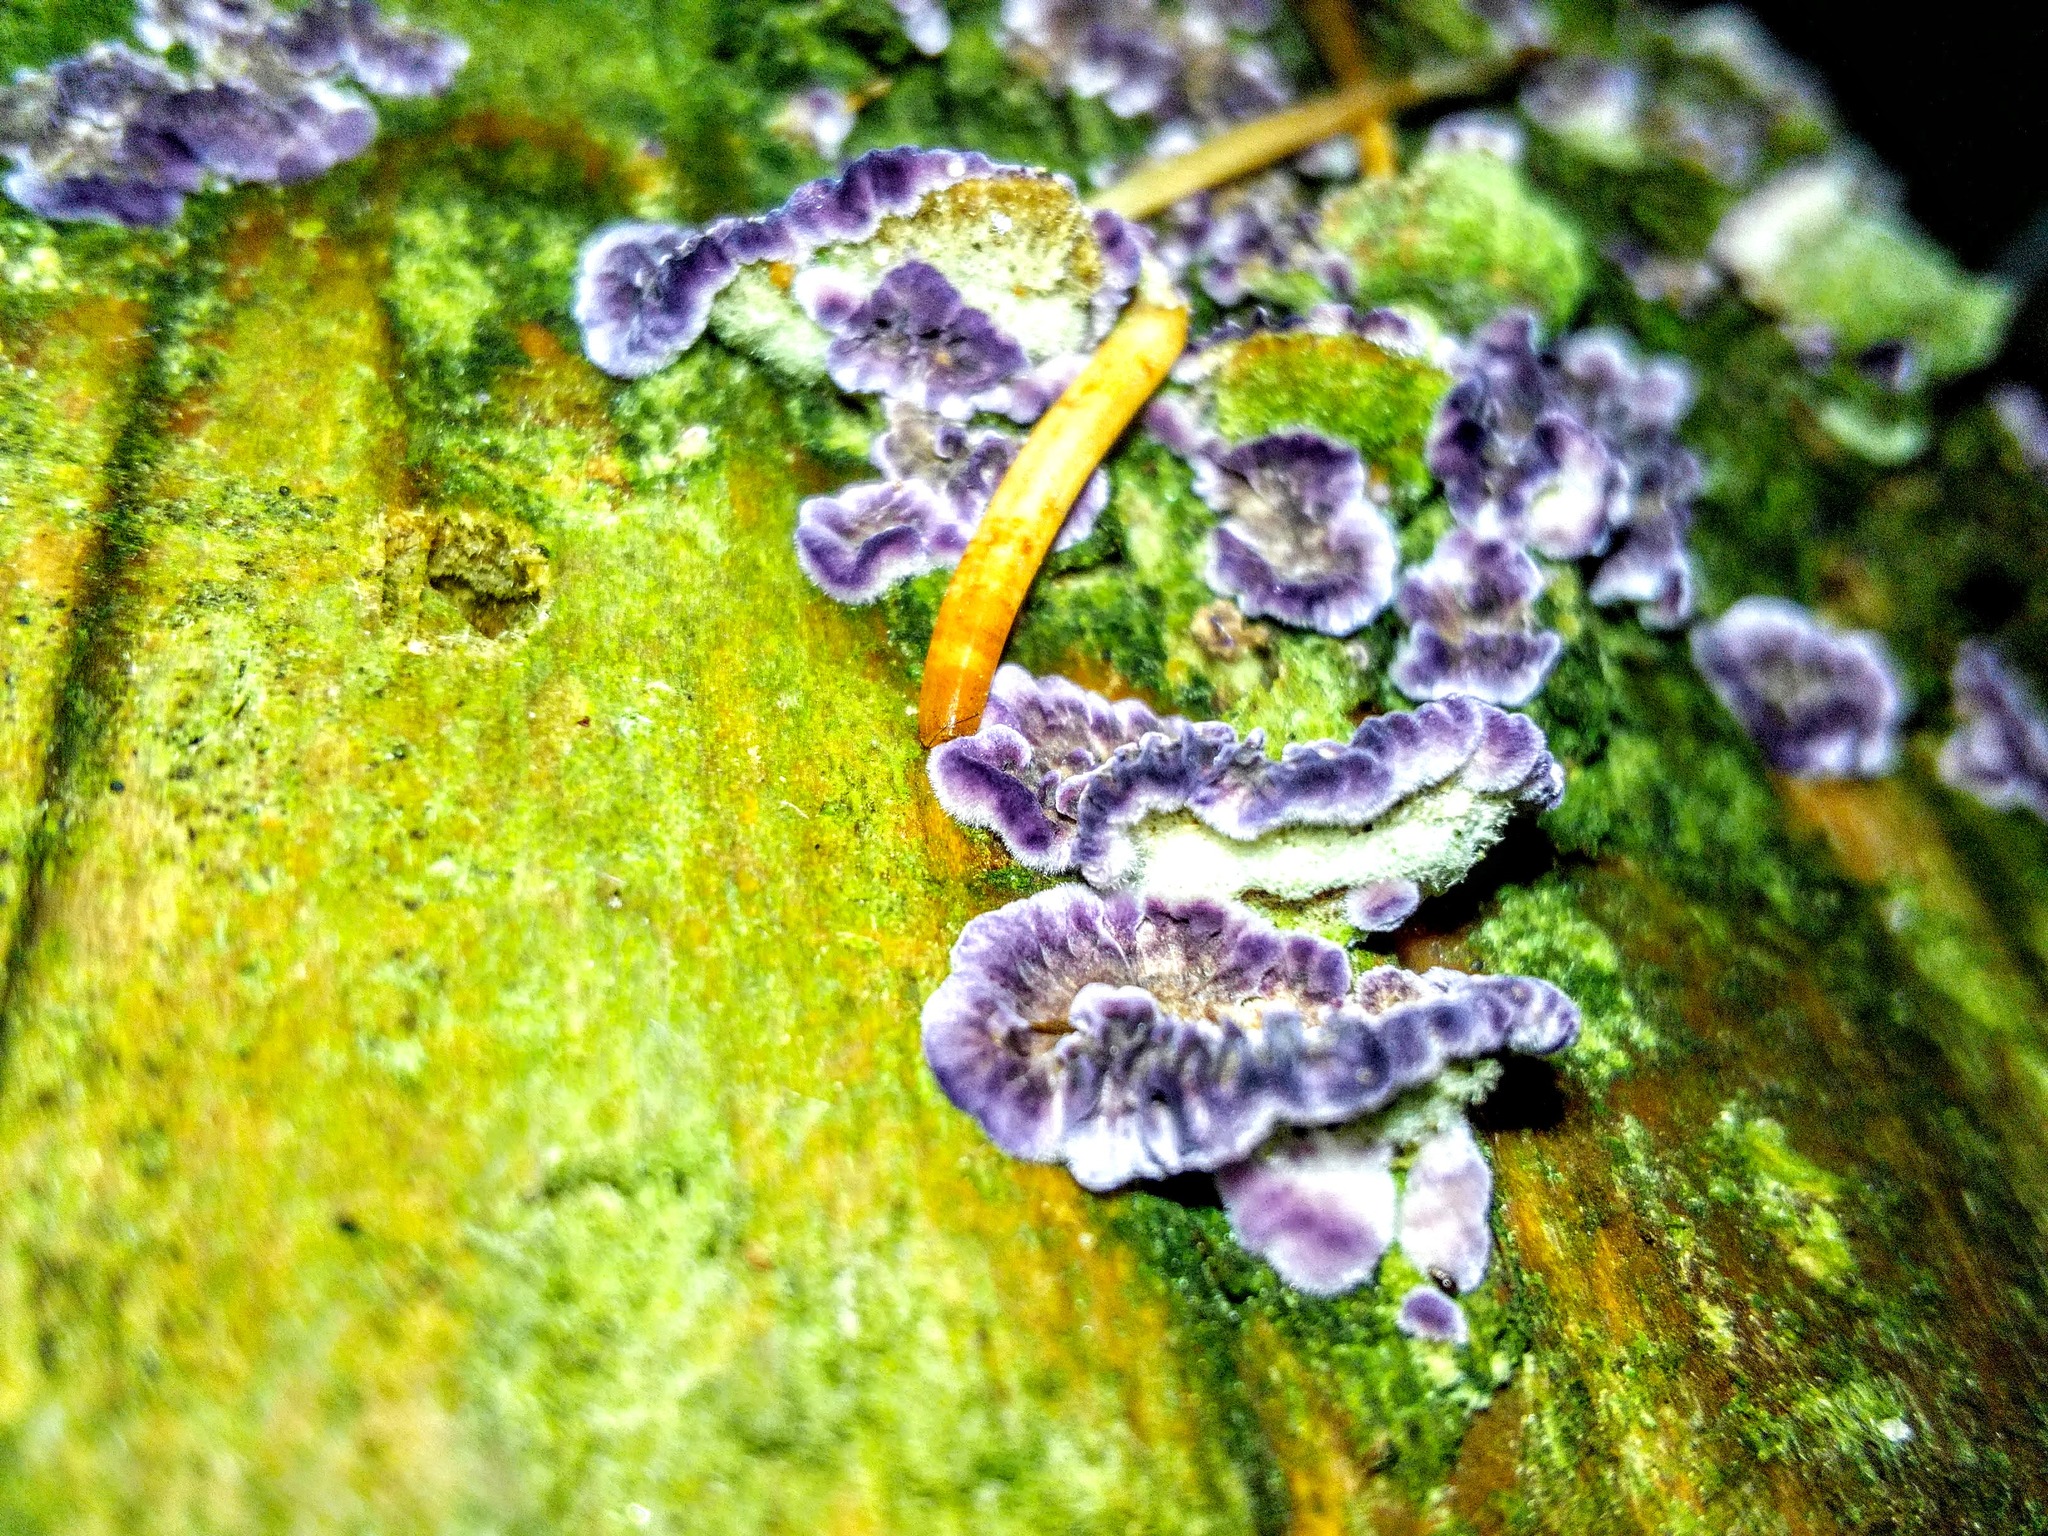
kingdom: Fungi
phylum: Basidiomycota
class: Agaricomycetes
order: Hymenochaetales
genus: Trichaptum
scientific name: Trichaptum fuscoviolaceum
